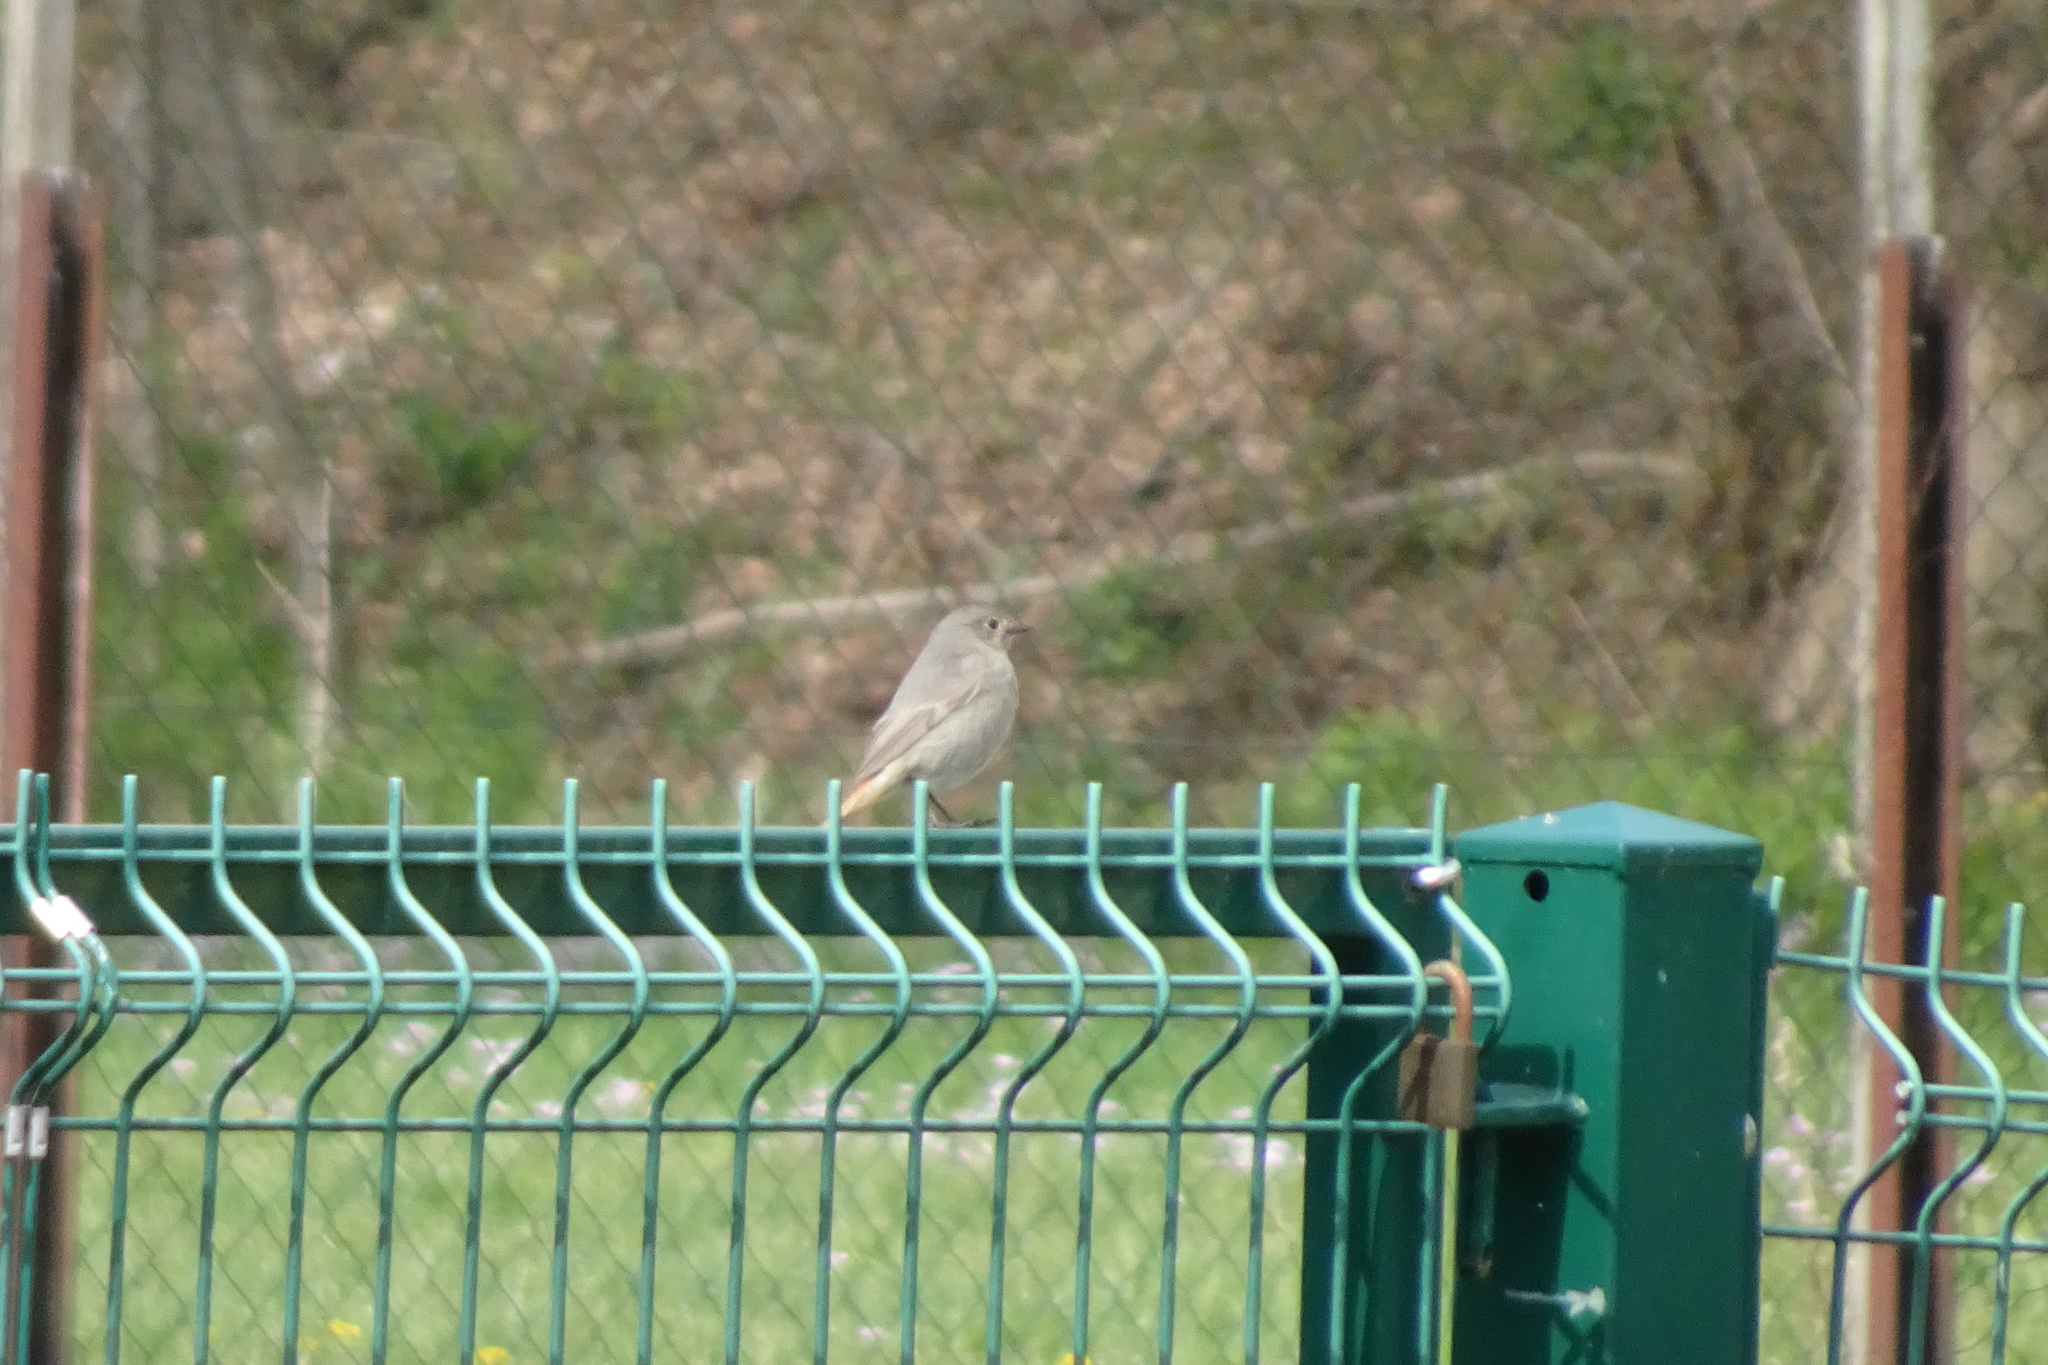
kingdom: Animalia
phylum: Chordata
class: Aves
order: Passeriformes
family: Muscicapidae
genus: Phoenicurus
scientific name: Phoenicurus ochruros
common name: Black redstart
